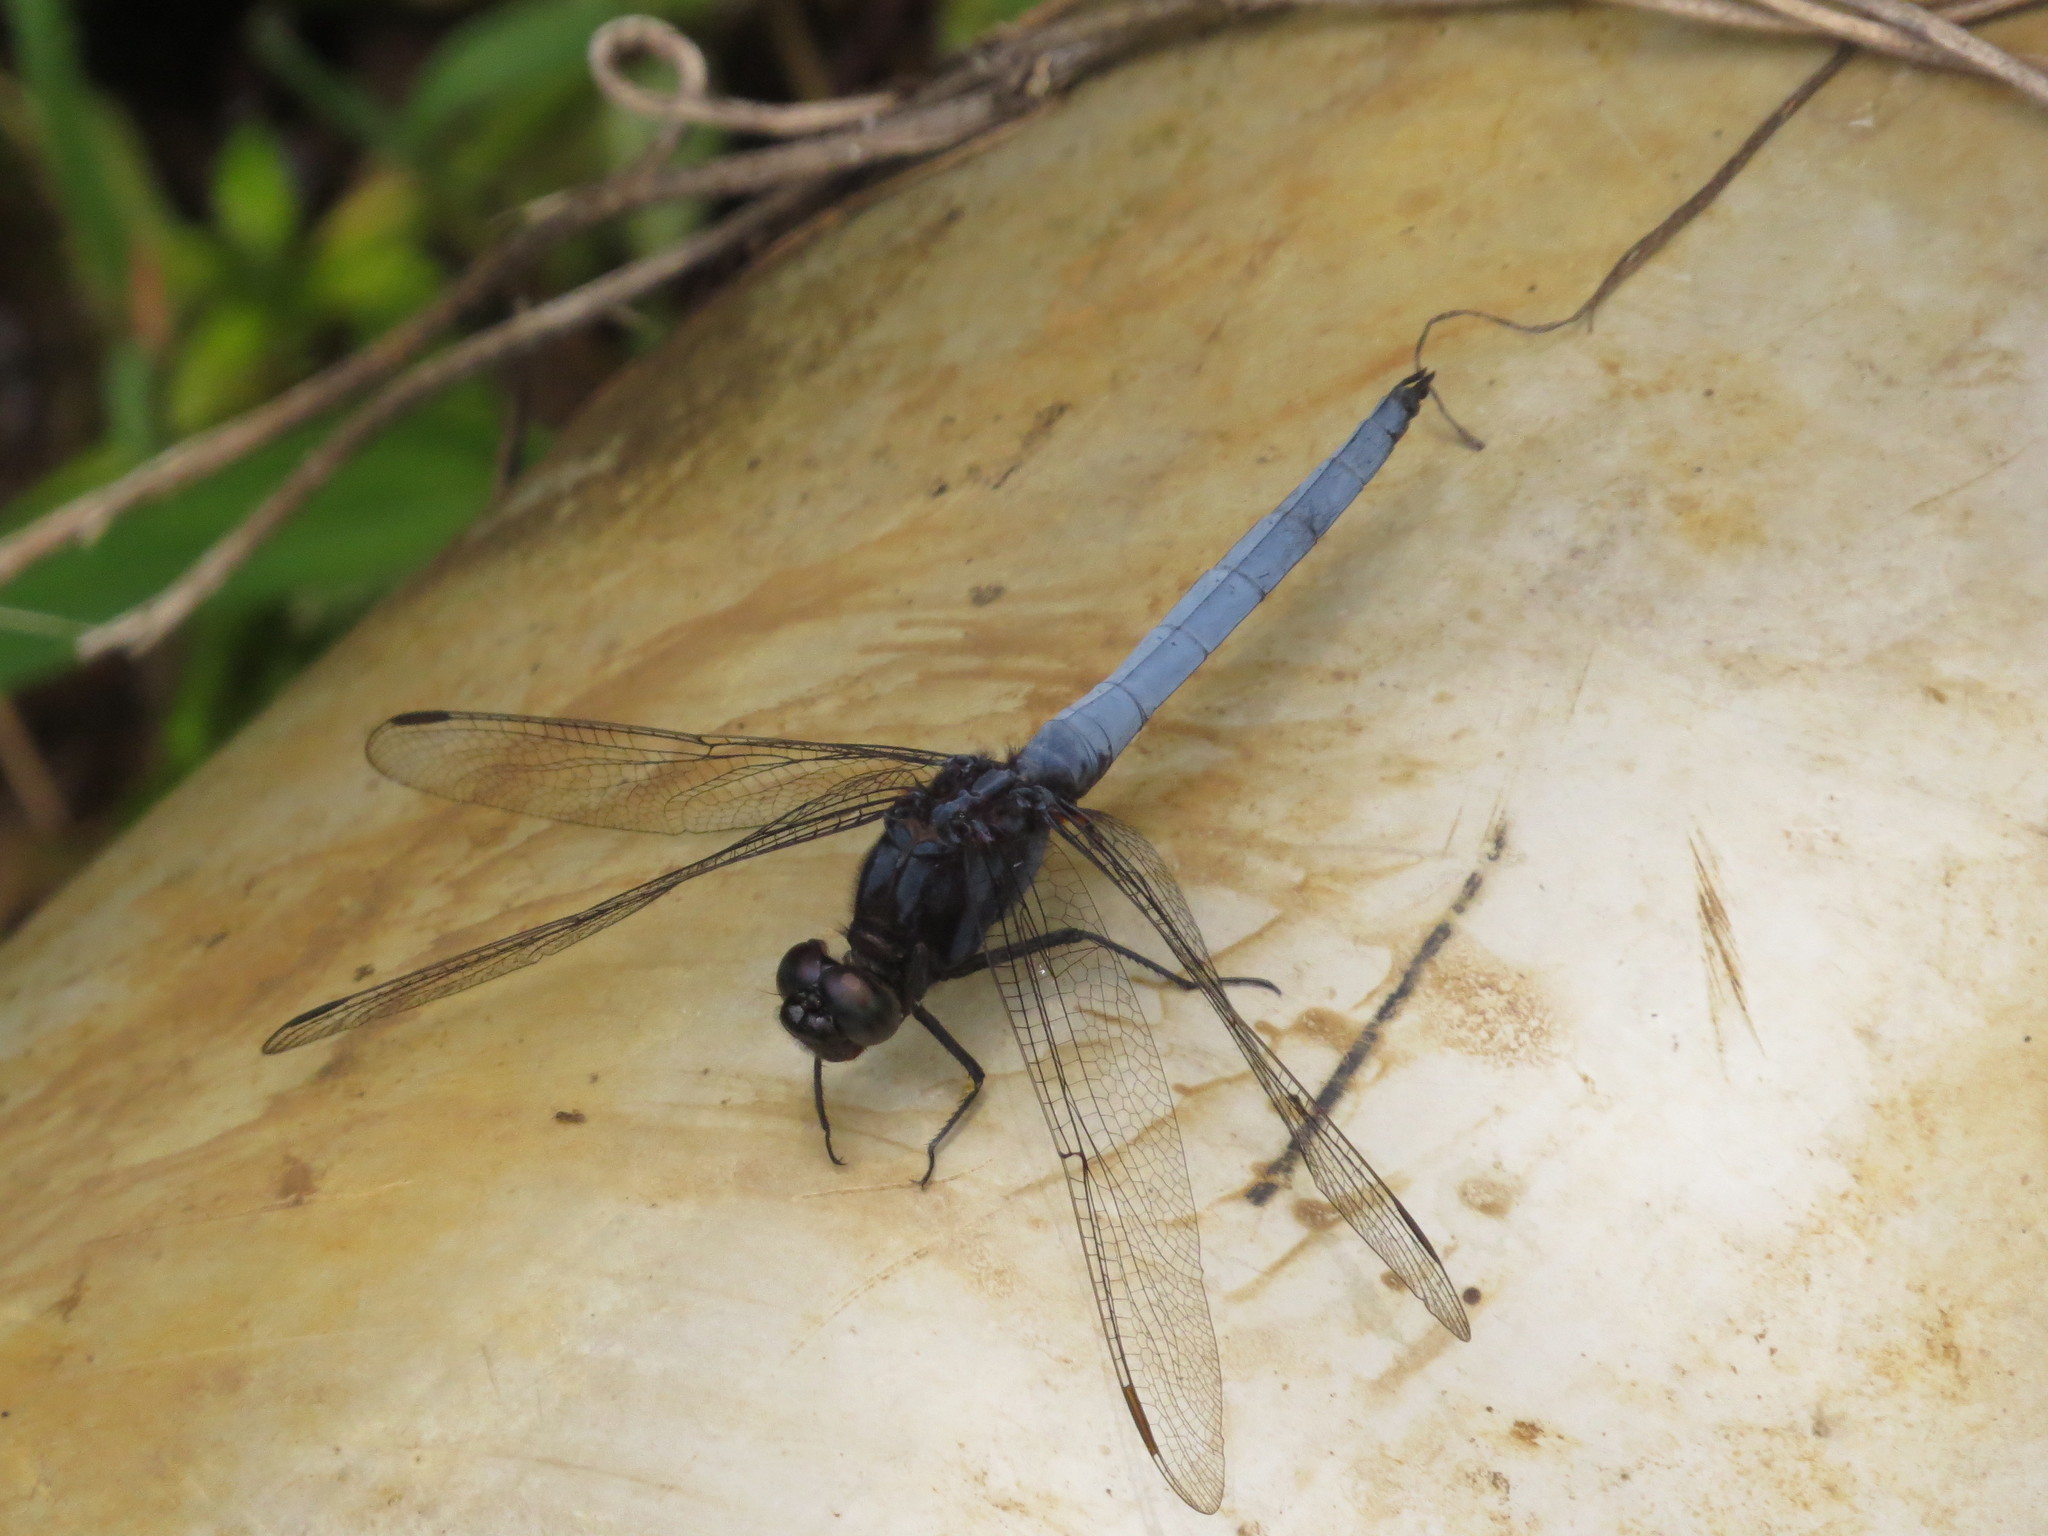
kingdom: Animalia
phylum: Arthropoda
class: Insecta
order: Odonata
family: Libellulidae
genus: Orthetrum
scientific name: Orthetrum glaucum
